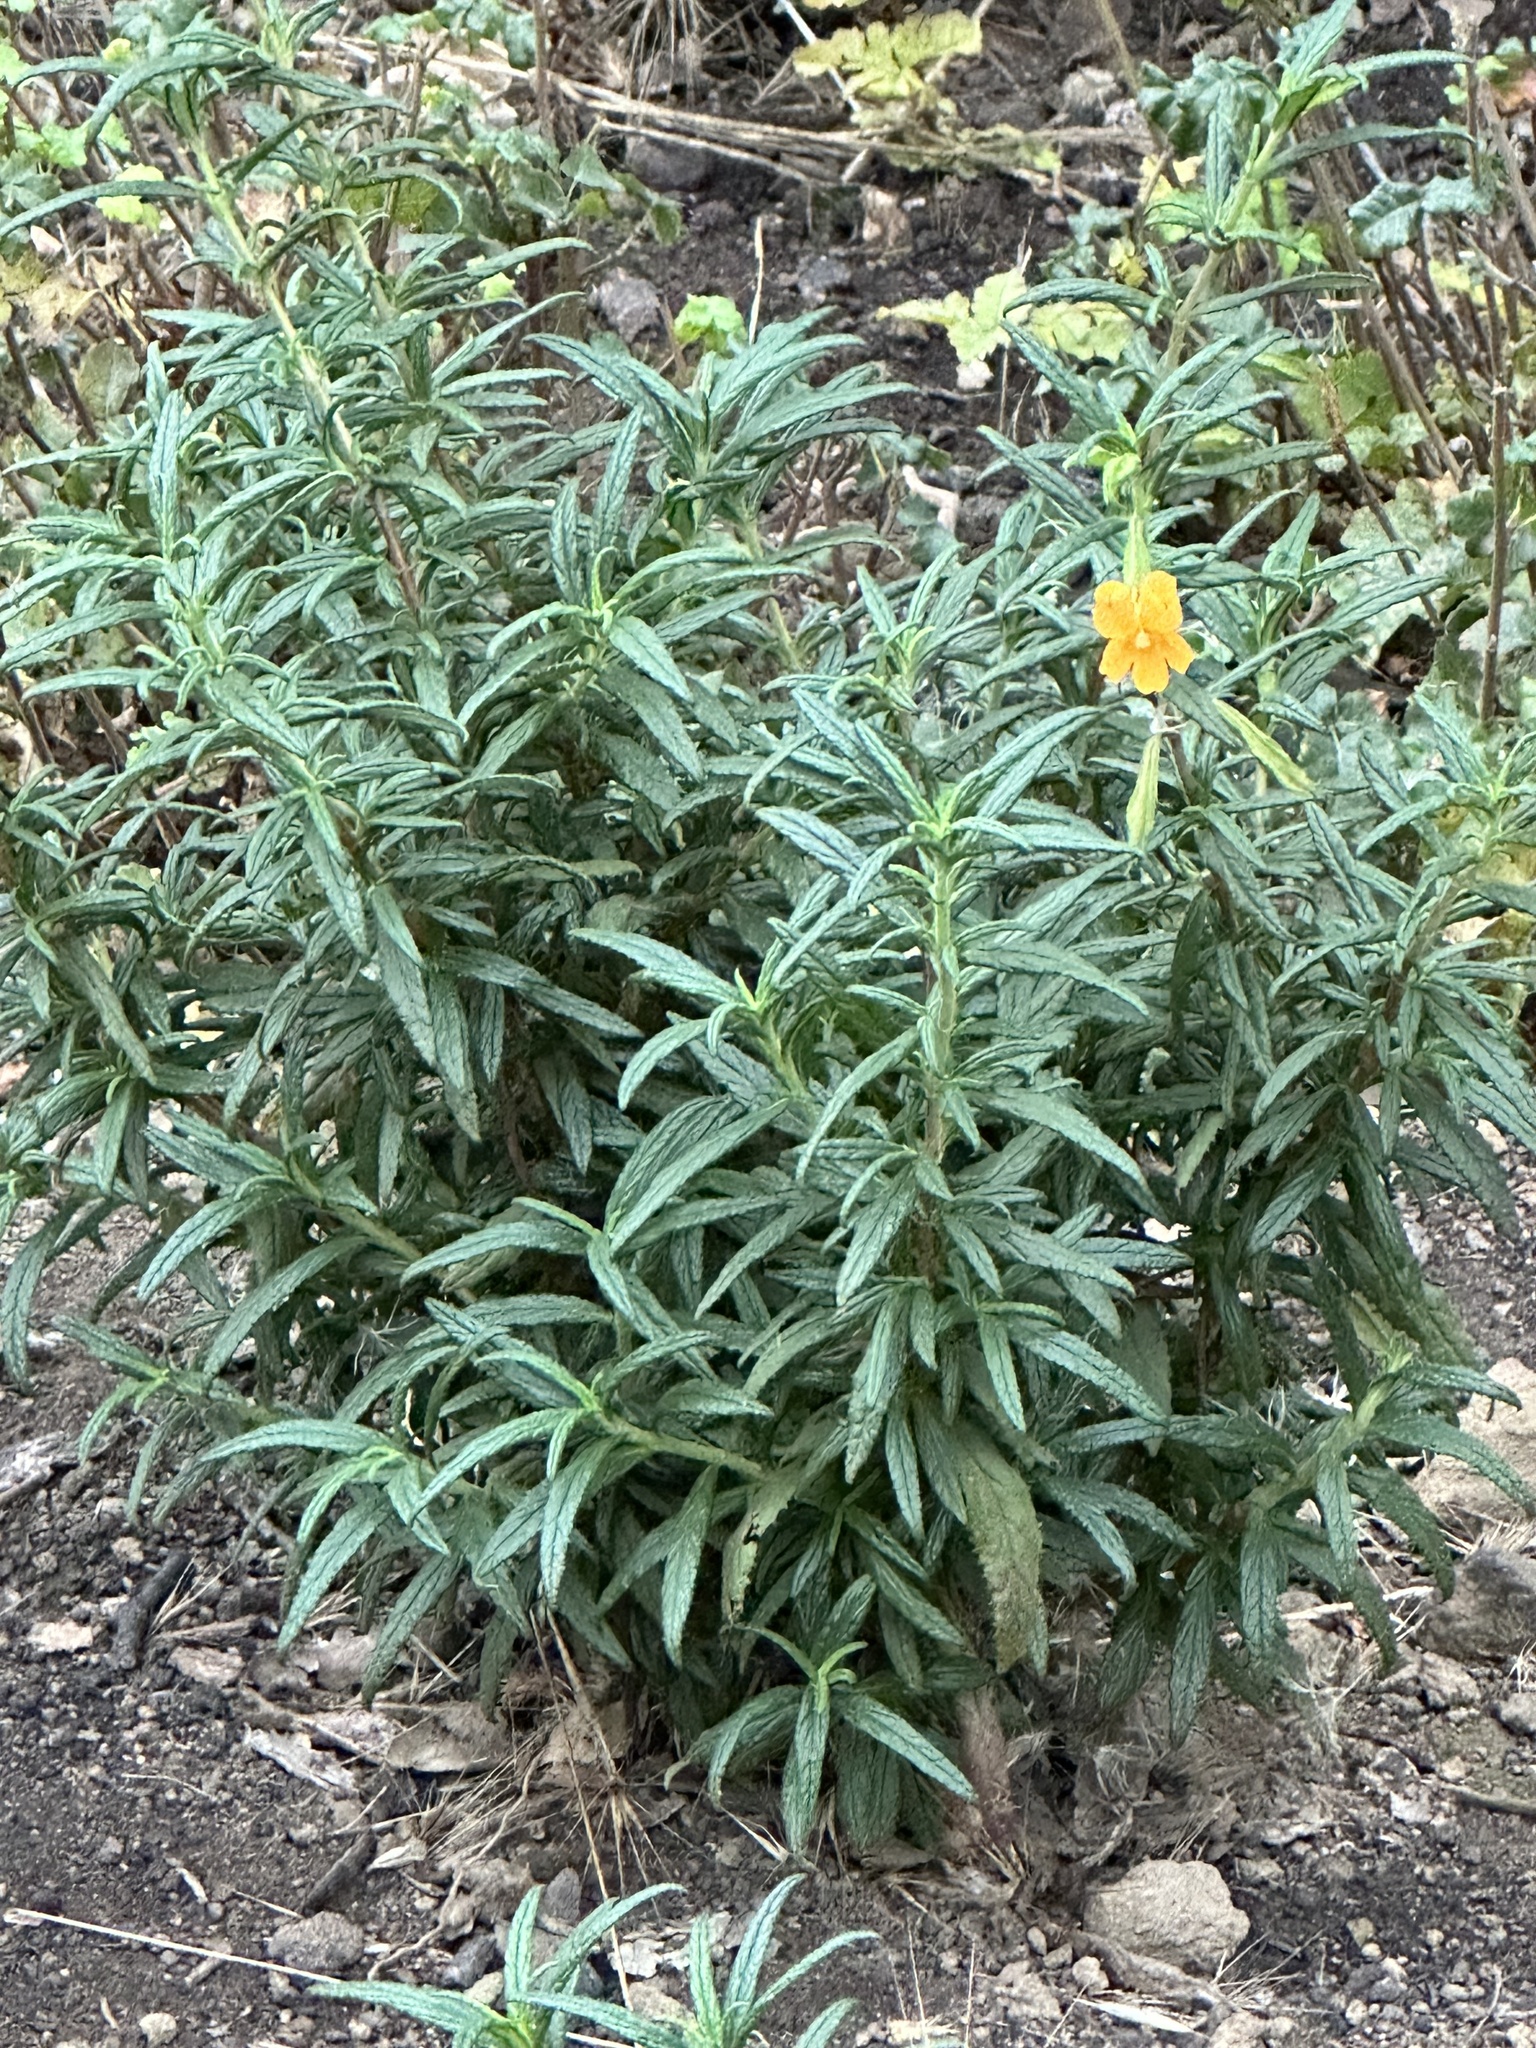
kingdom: Plantae
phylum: Tracheophyta
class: Magnoliopsida
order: Lamiales
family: Phrymaceae
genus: Diplacus
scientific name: Diplacus aurantiacus
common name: Bush monkey-flower
